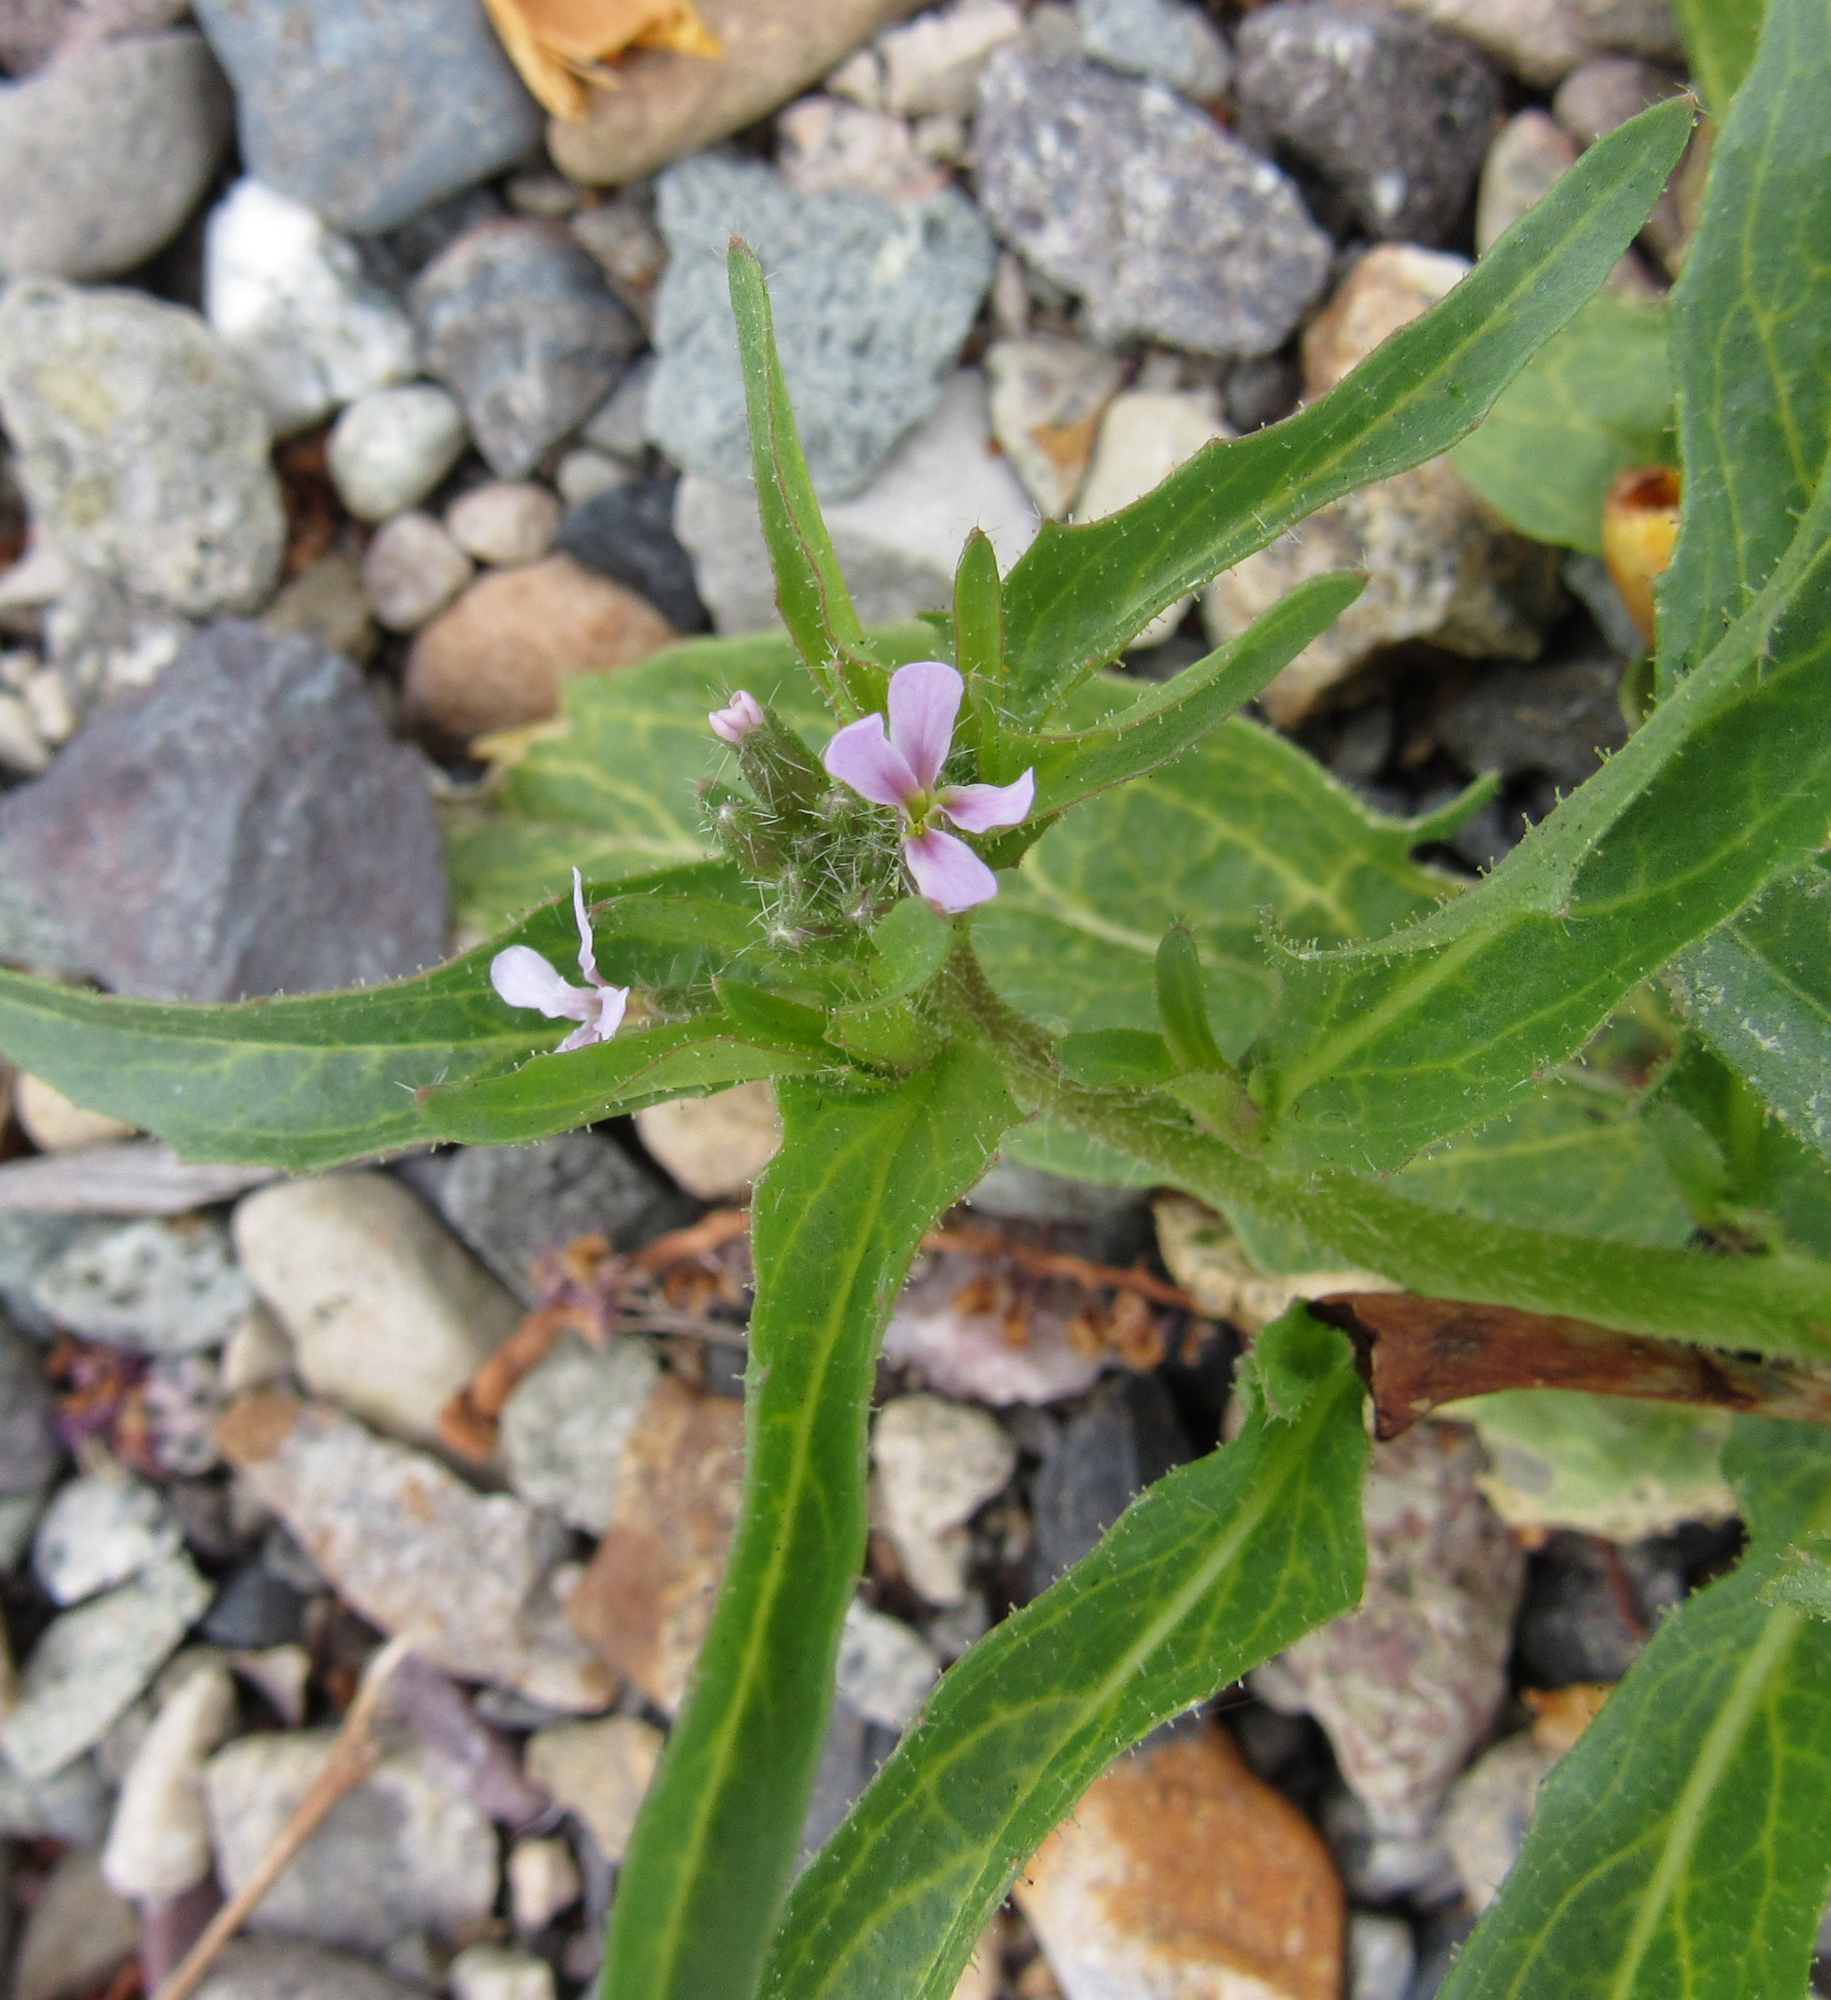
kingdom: Plantae
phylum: Tracheophyta
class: Magnoliopsida
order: Brassicales
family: Brassicaceae
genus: Chorispora
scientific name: Chorispora tenella
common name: Crossflower
